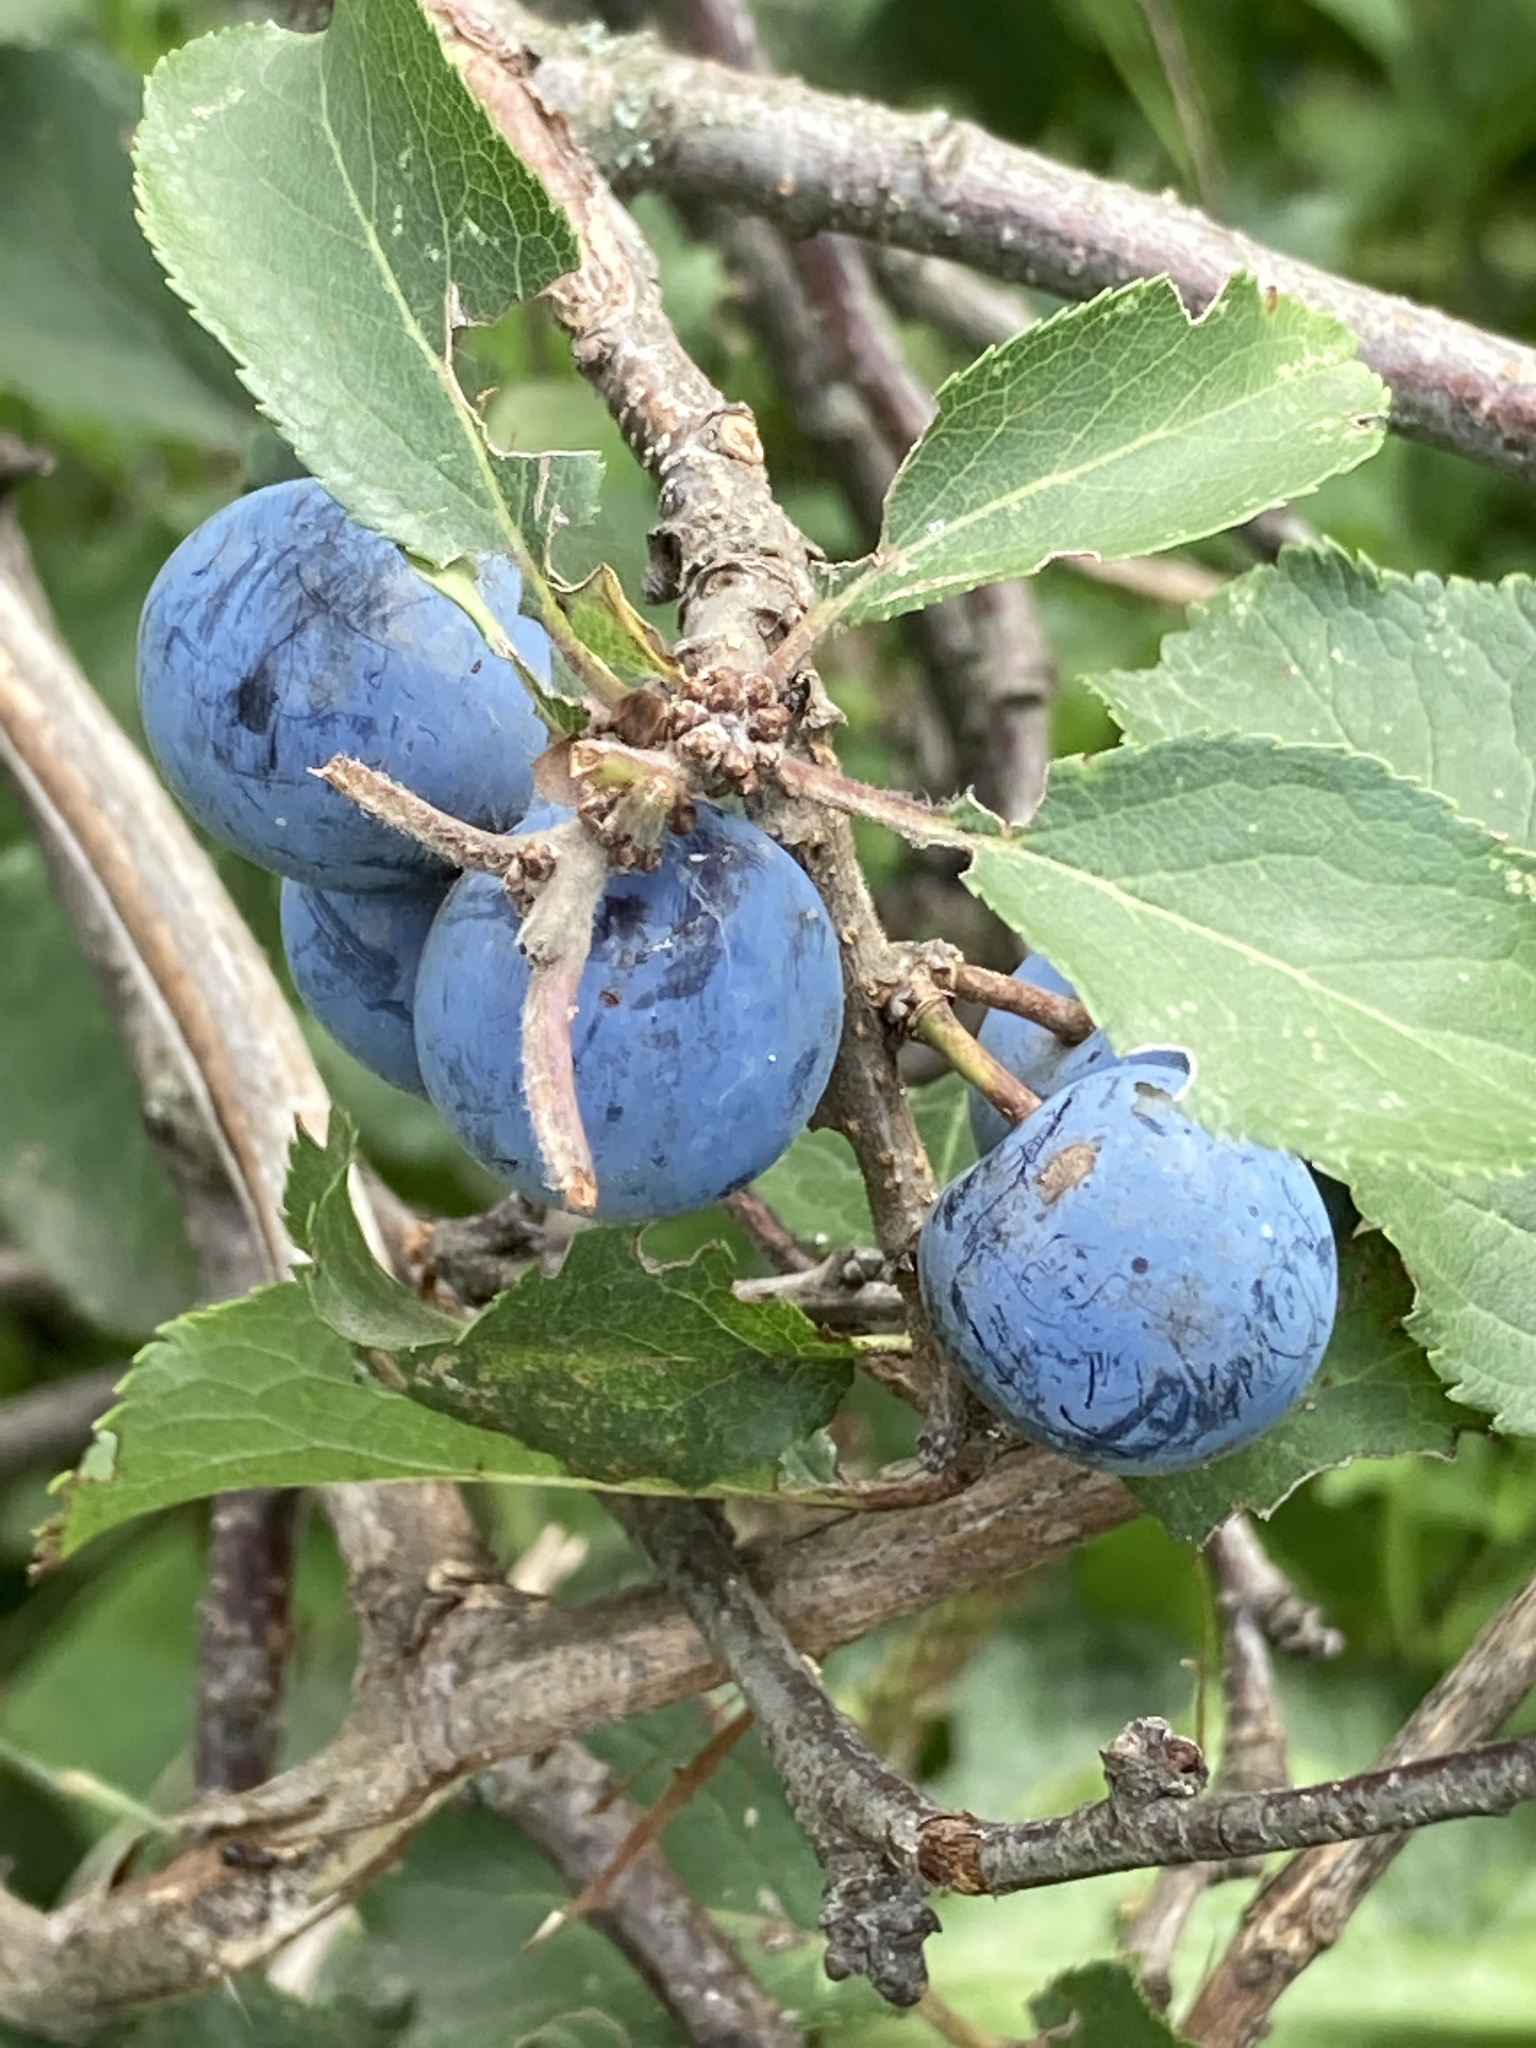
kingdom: Plantae
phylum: Tracheophyta
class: Magnoliopsida
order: Rosales
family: Rosaceae
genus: Prunus
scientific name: Prunus spinosa
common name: Blackthorn
